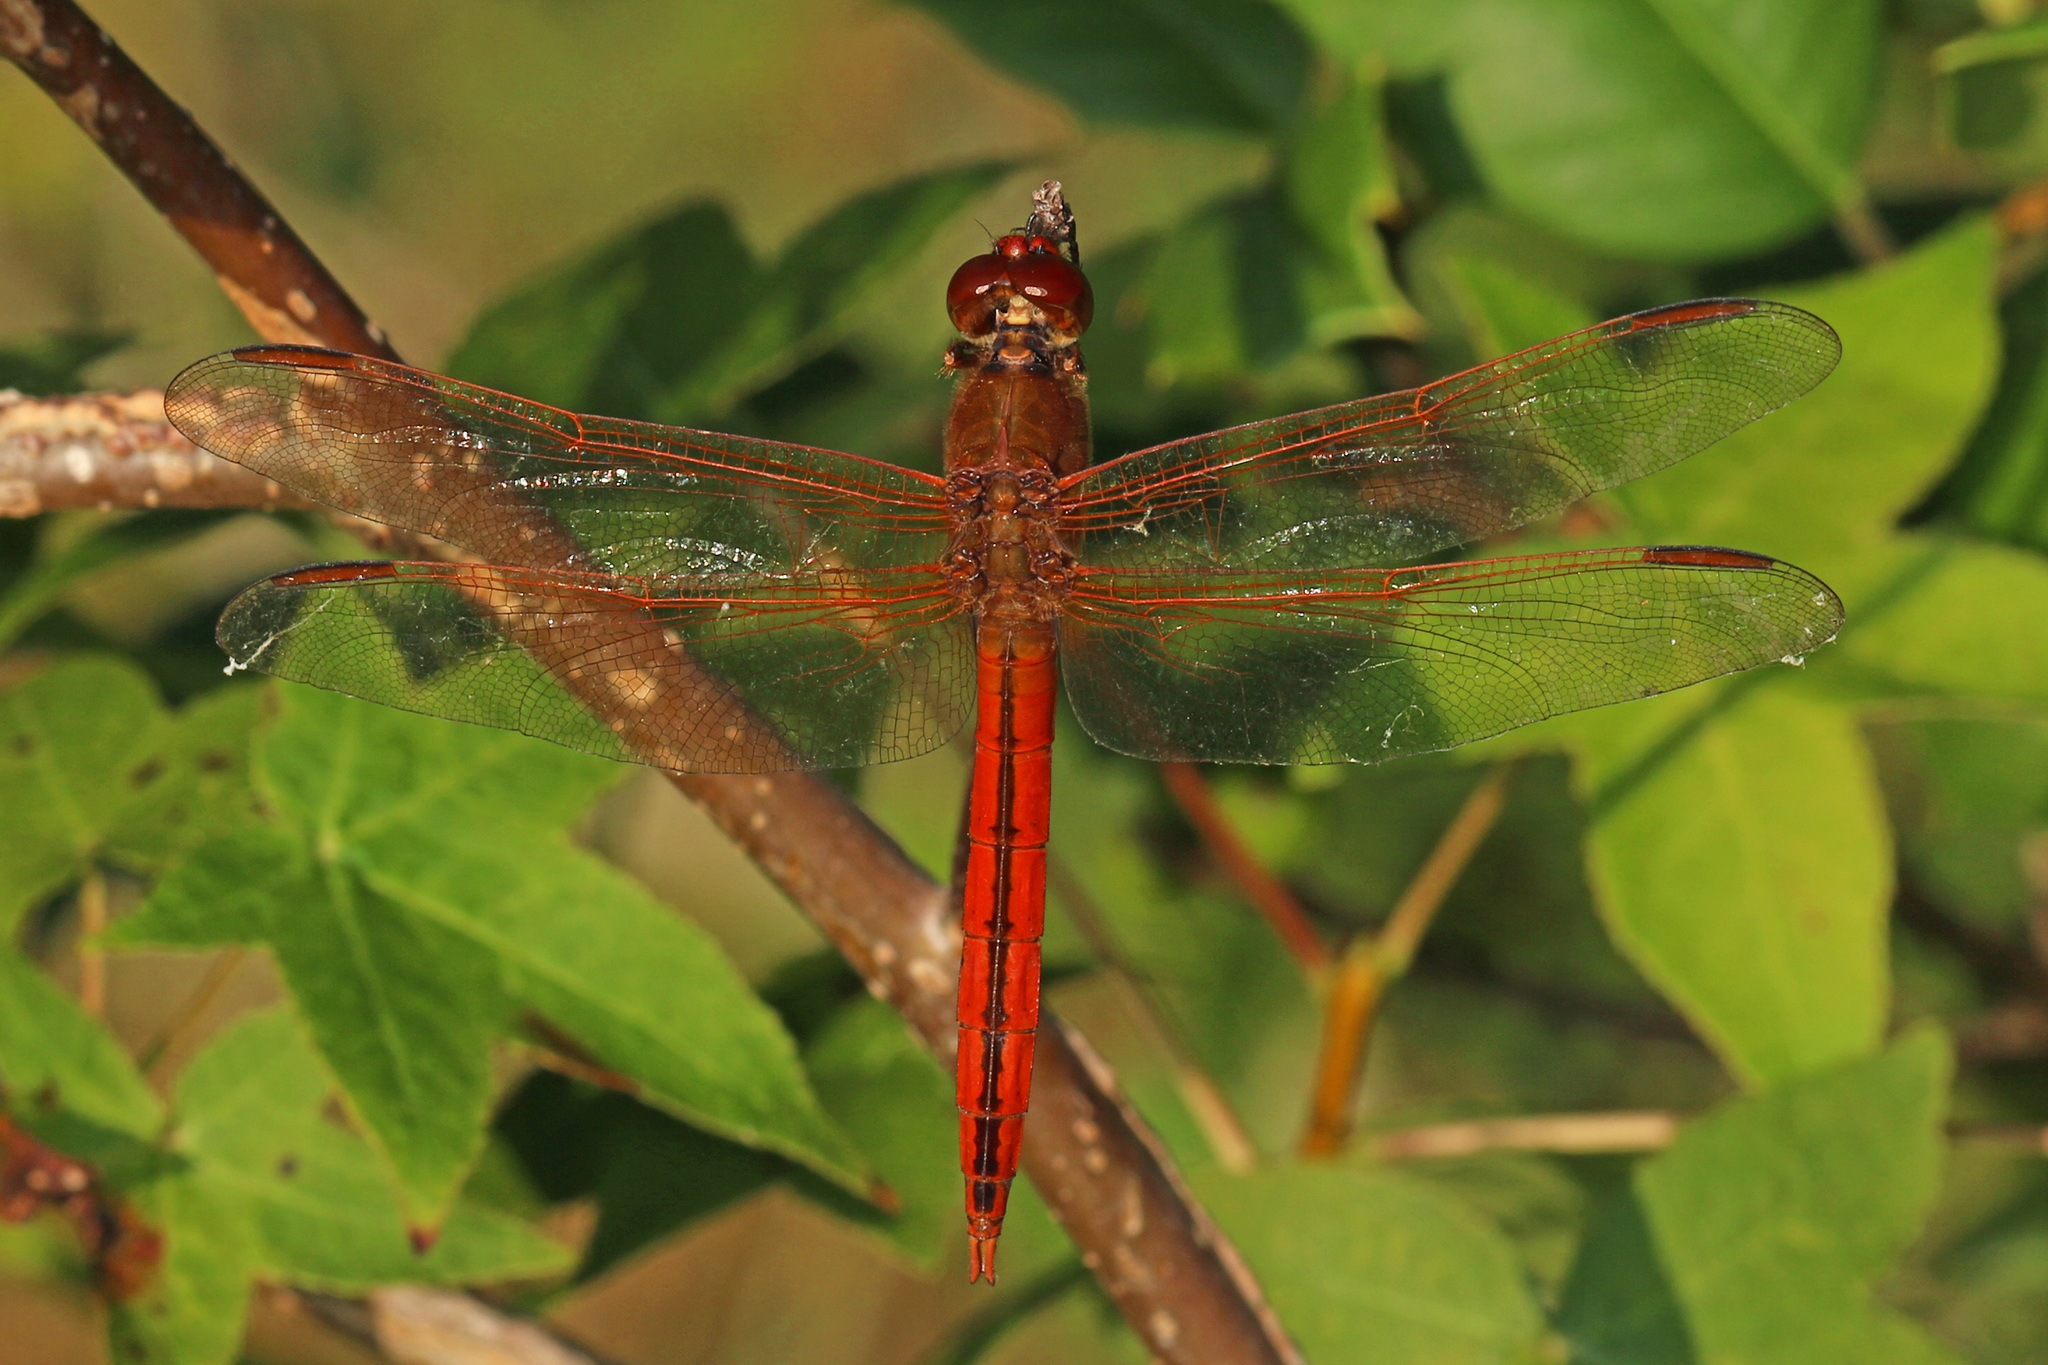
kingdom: Animalia
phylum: Arthropoda
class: Insecta
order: Odonata
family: Libellulidae
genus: Libellula
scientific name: Libellula needhami
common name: Needham's skimmer
